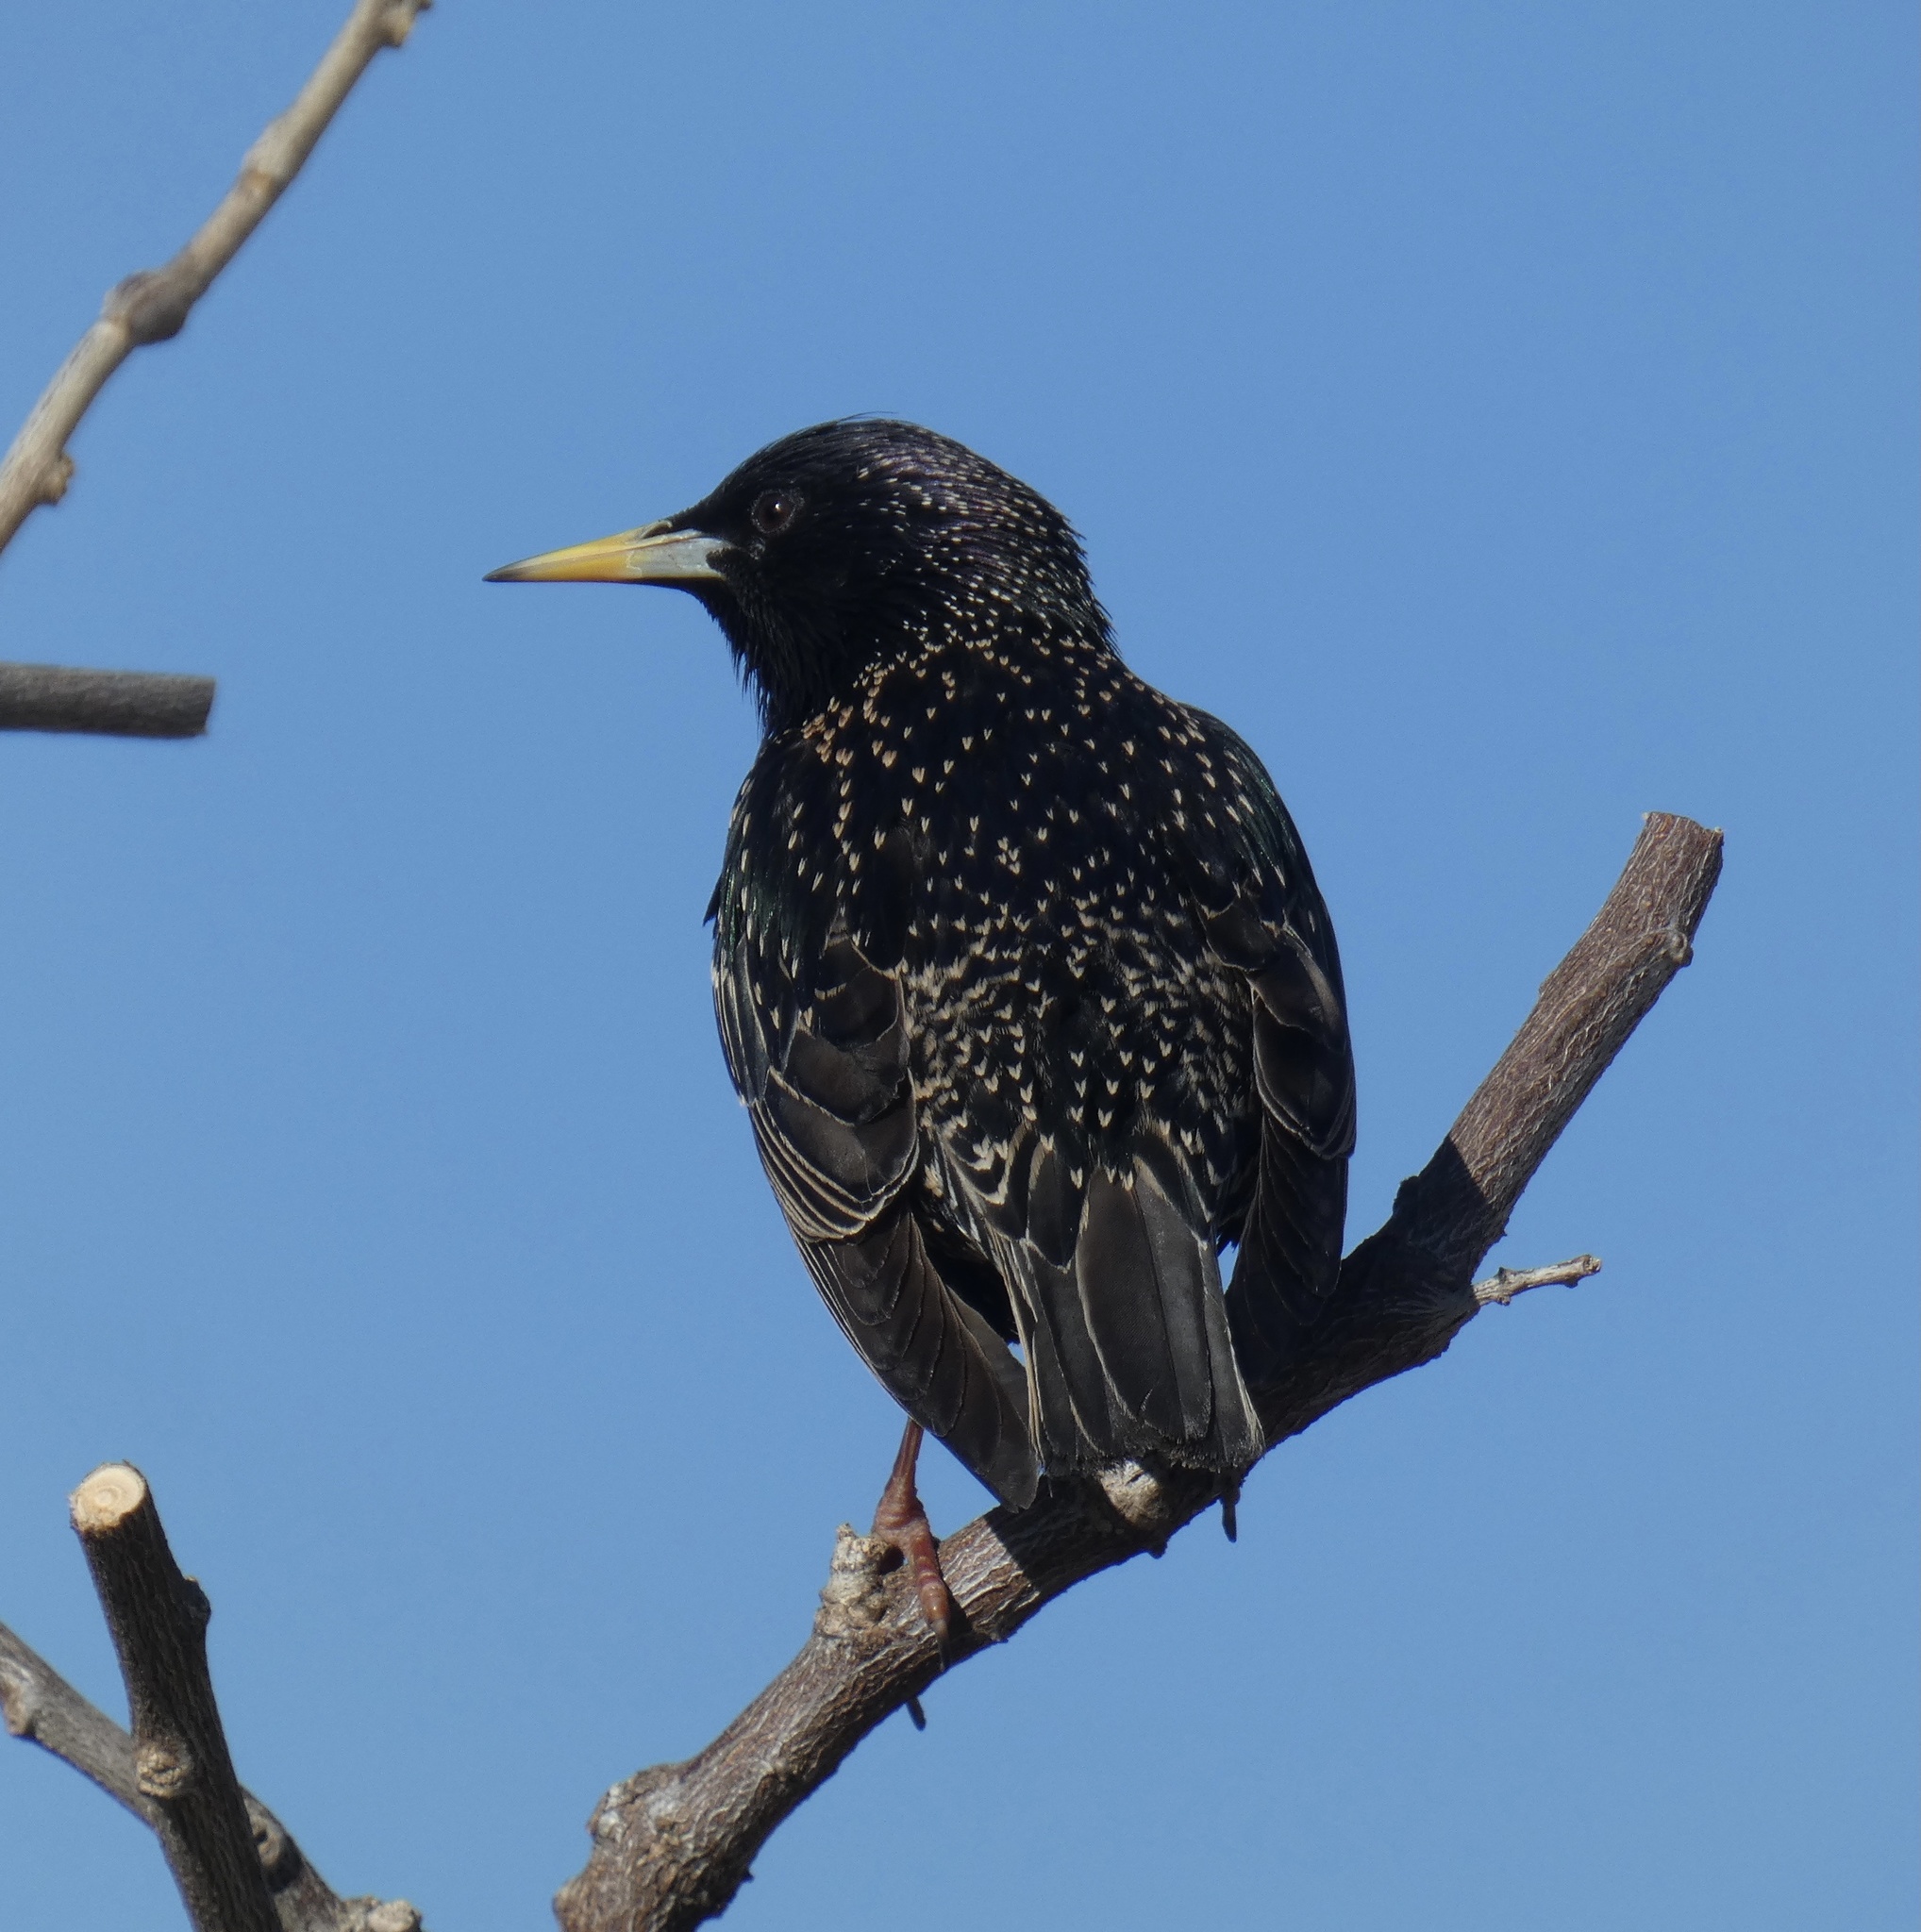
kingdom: Animalia
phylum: Chordata
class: Aves
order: Passeriformes
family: Sturnidae
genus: Sturnus
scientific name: Sturnus vulgaris
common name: Common starling
